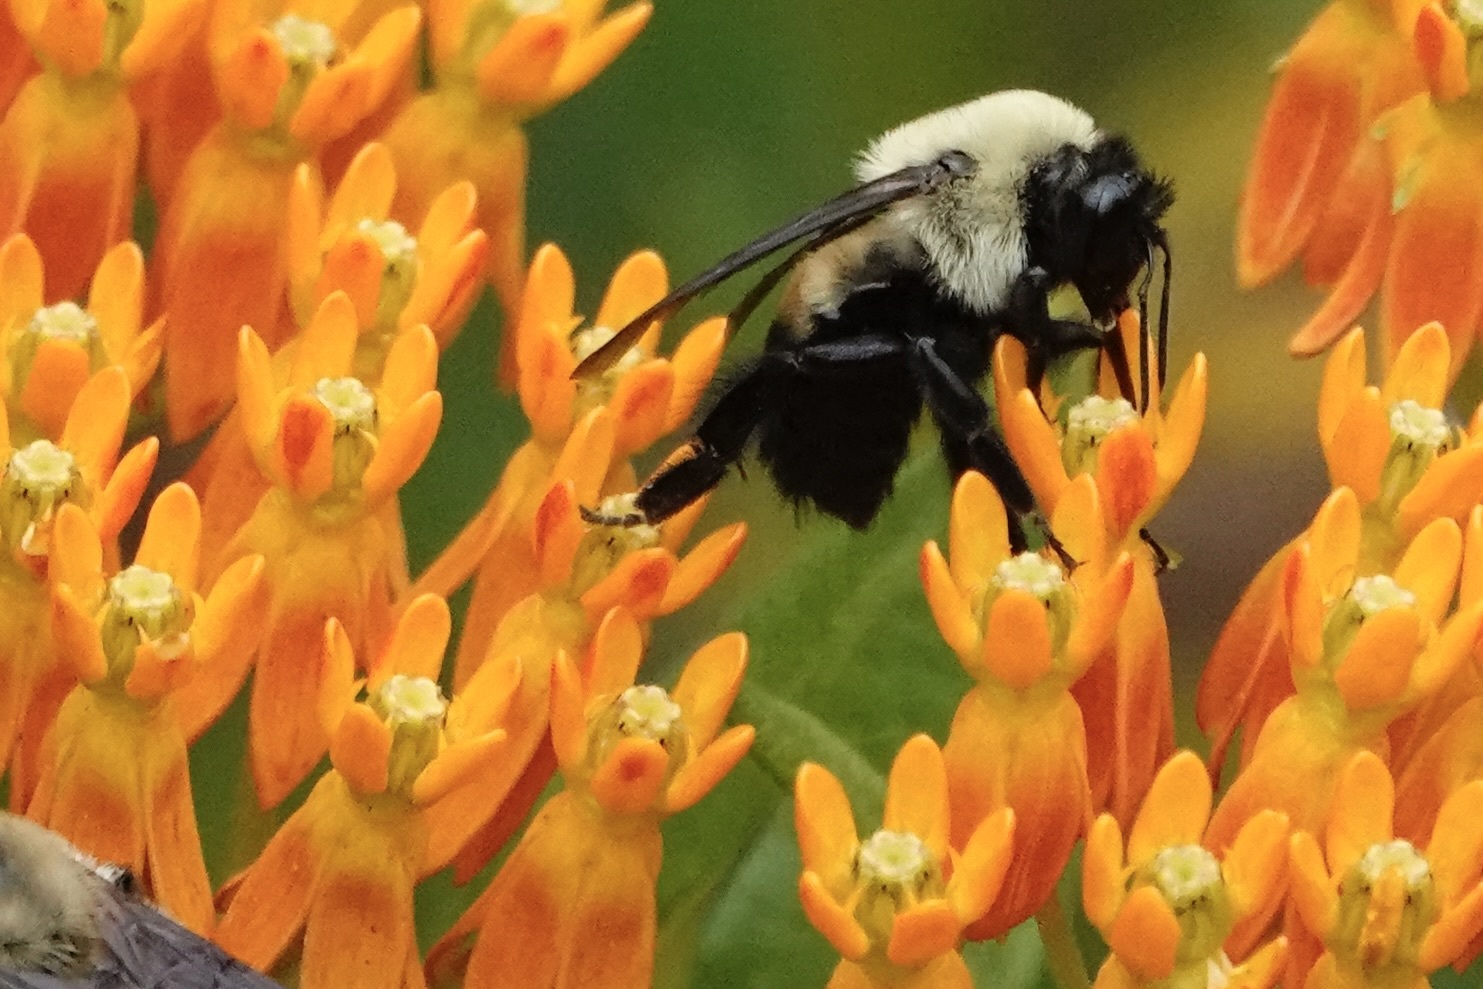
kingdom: Animalia
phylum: Arthropoda
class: Insecta
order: Hymenoptera
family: Apidae
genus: Bombus
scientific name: Bombus griseocollis
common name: Brown-belted bumble bee
